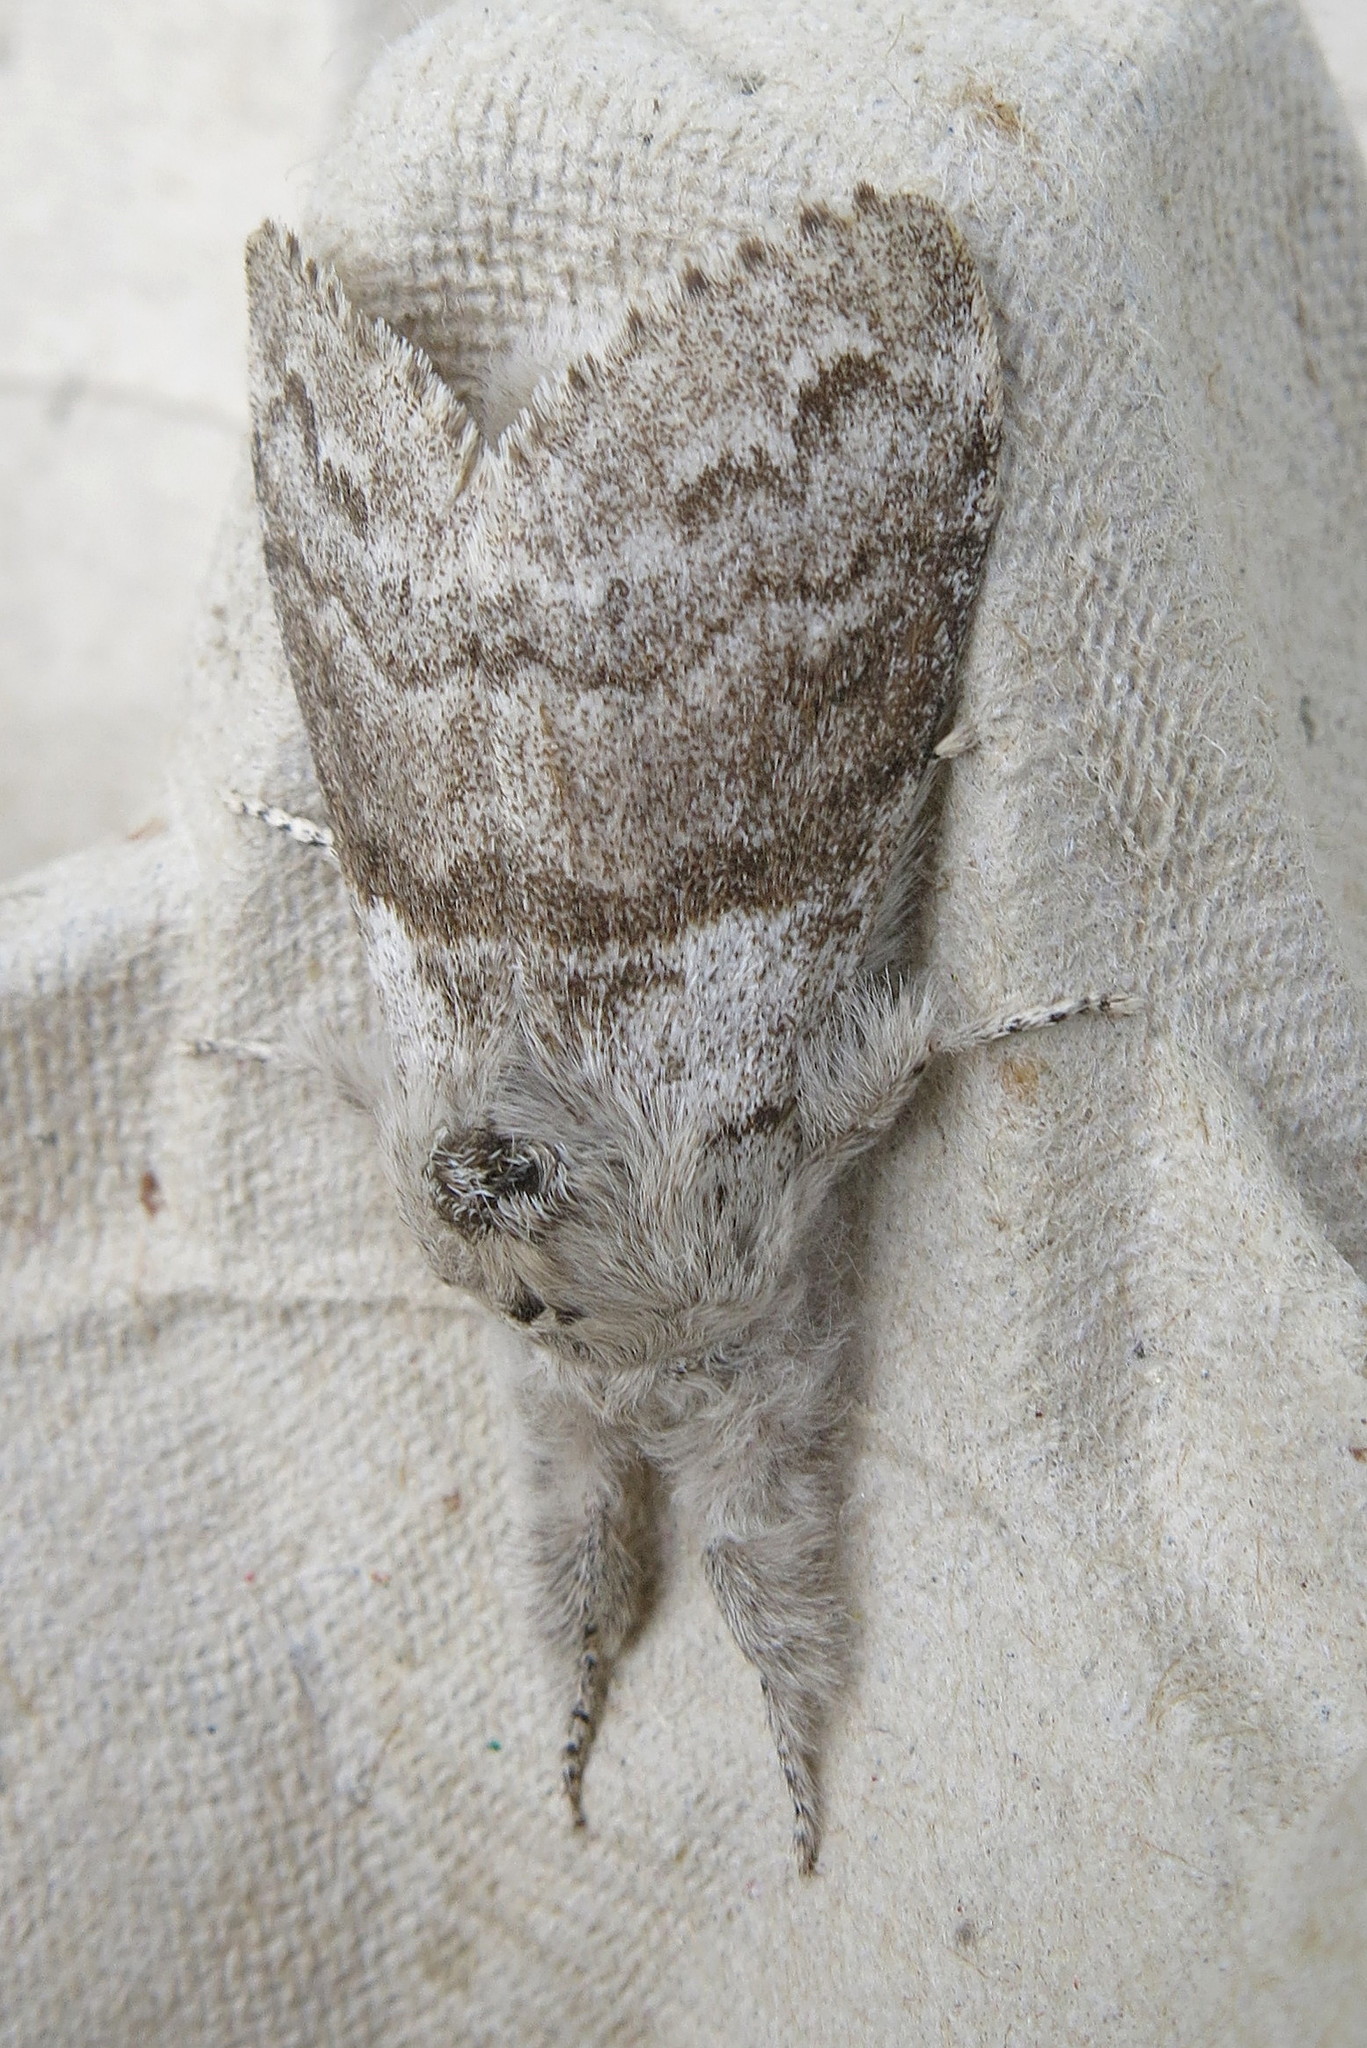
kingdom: Animalia
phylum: Arthropoda
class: Insecta
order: Lepidoptera
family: Erebidae
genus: Calliteara
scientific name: Calliteara pudibunda
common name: Pale tussock
